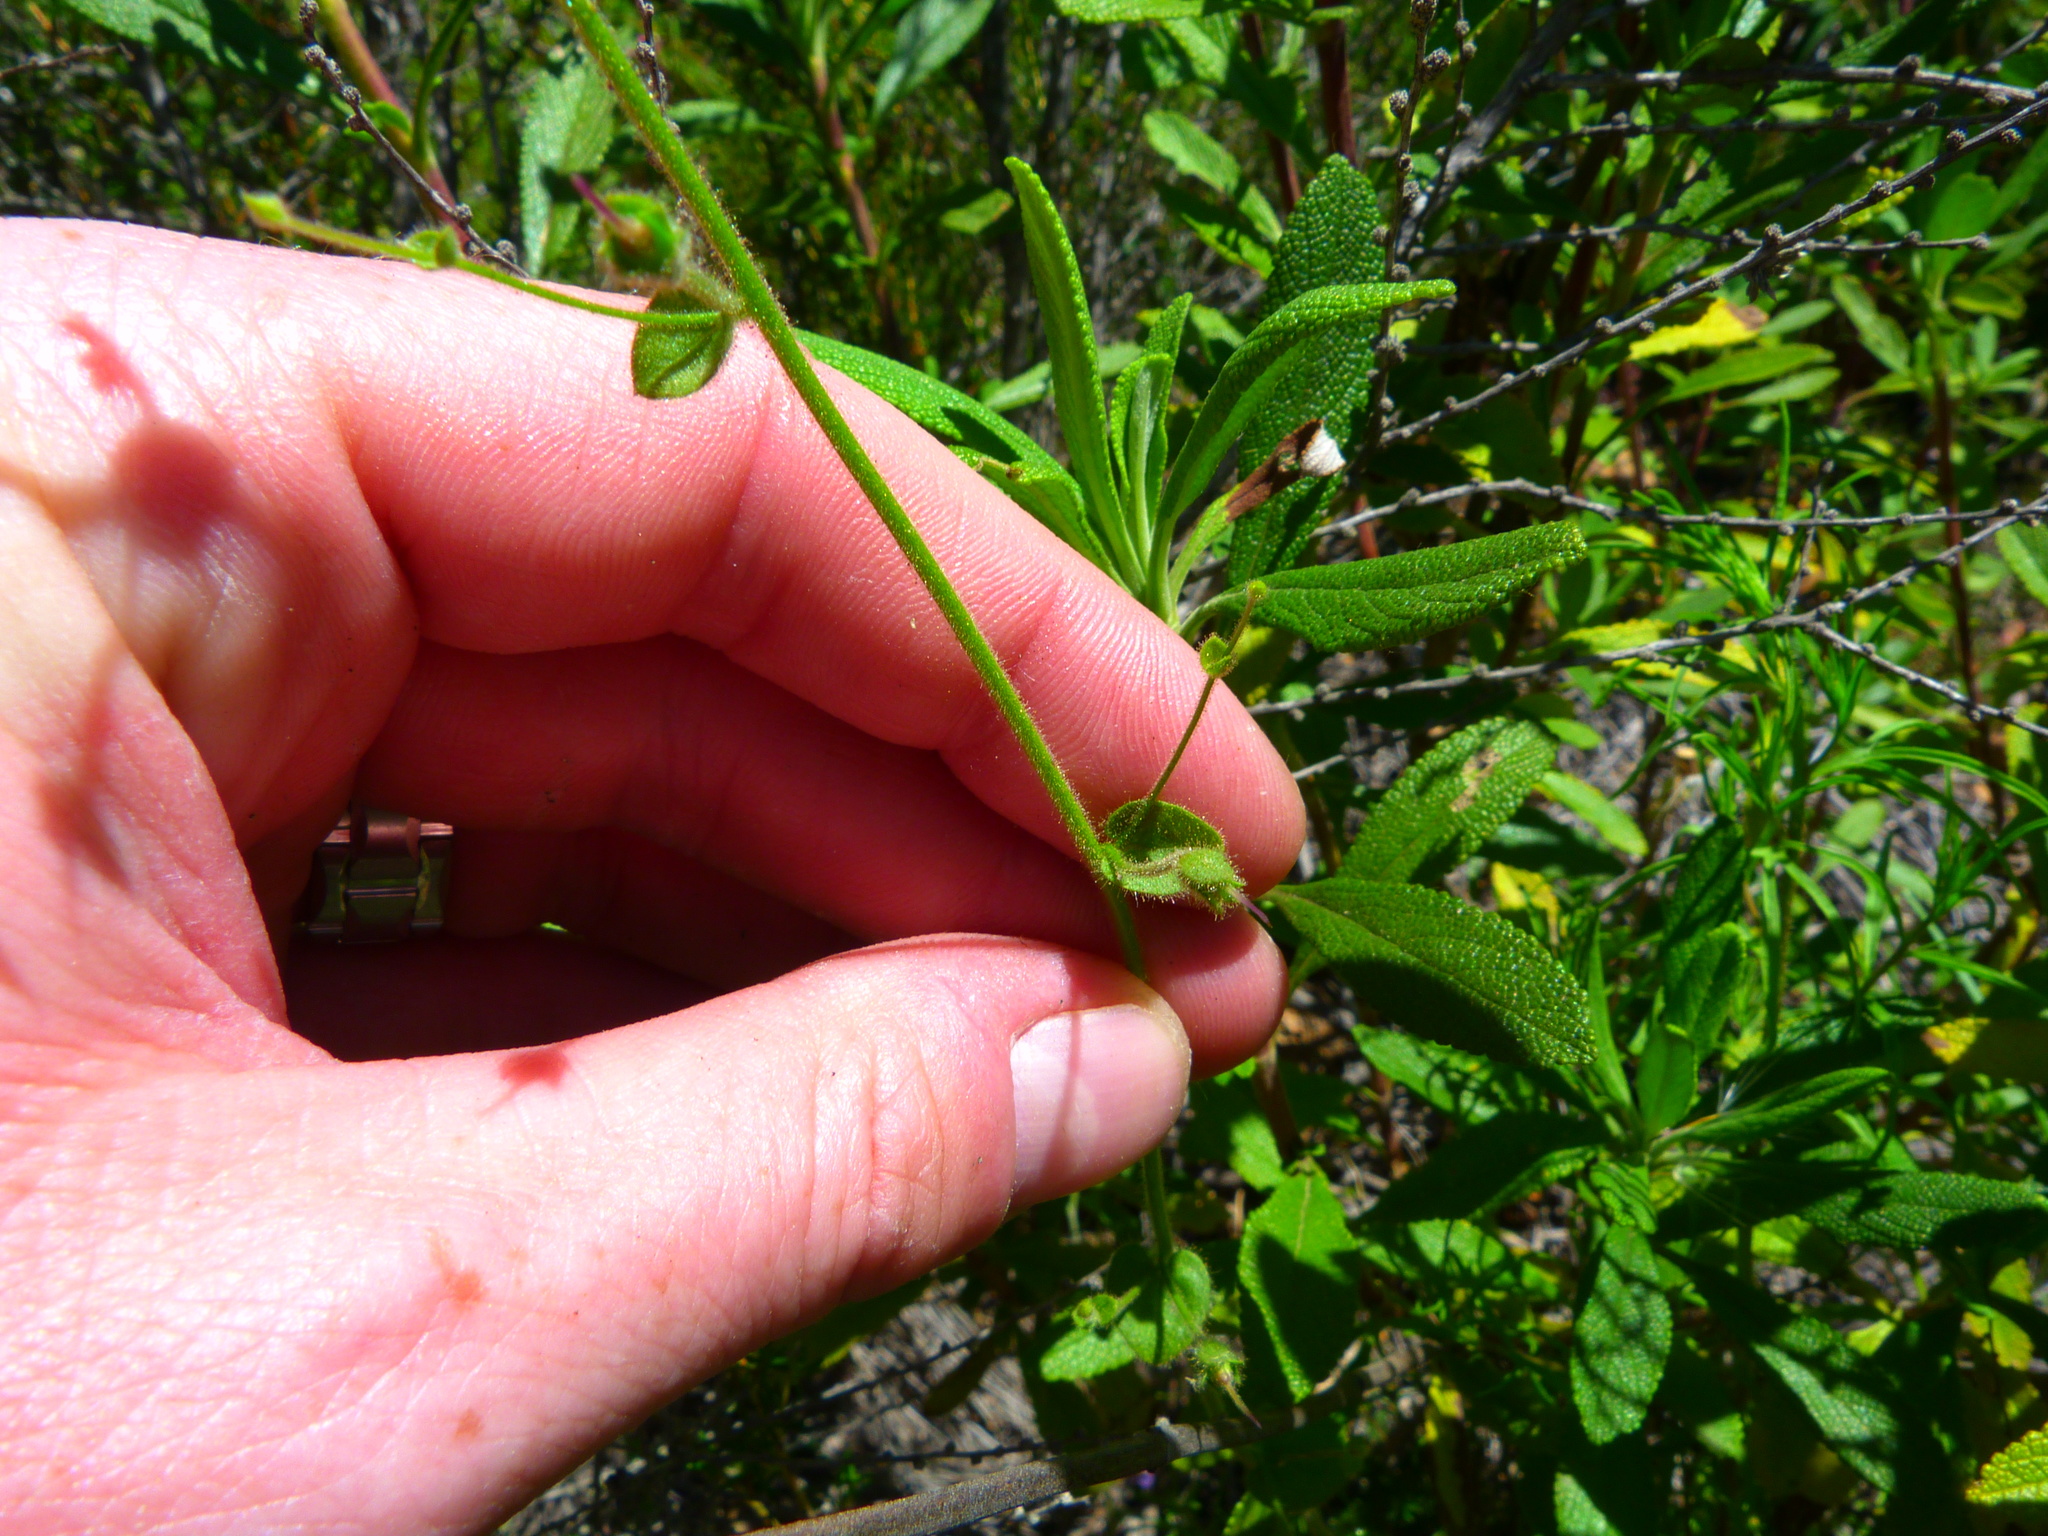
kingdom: Plantae
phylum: Tracheophyta
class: Magnoliopsida
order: Lamiales
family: Plantaginaceae
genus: Sairocarpus
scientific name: Sairocarpus nuttallianus
